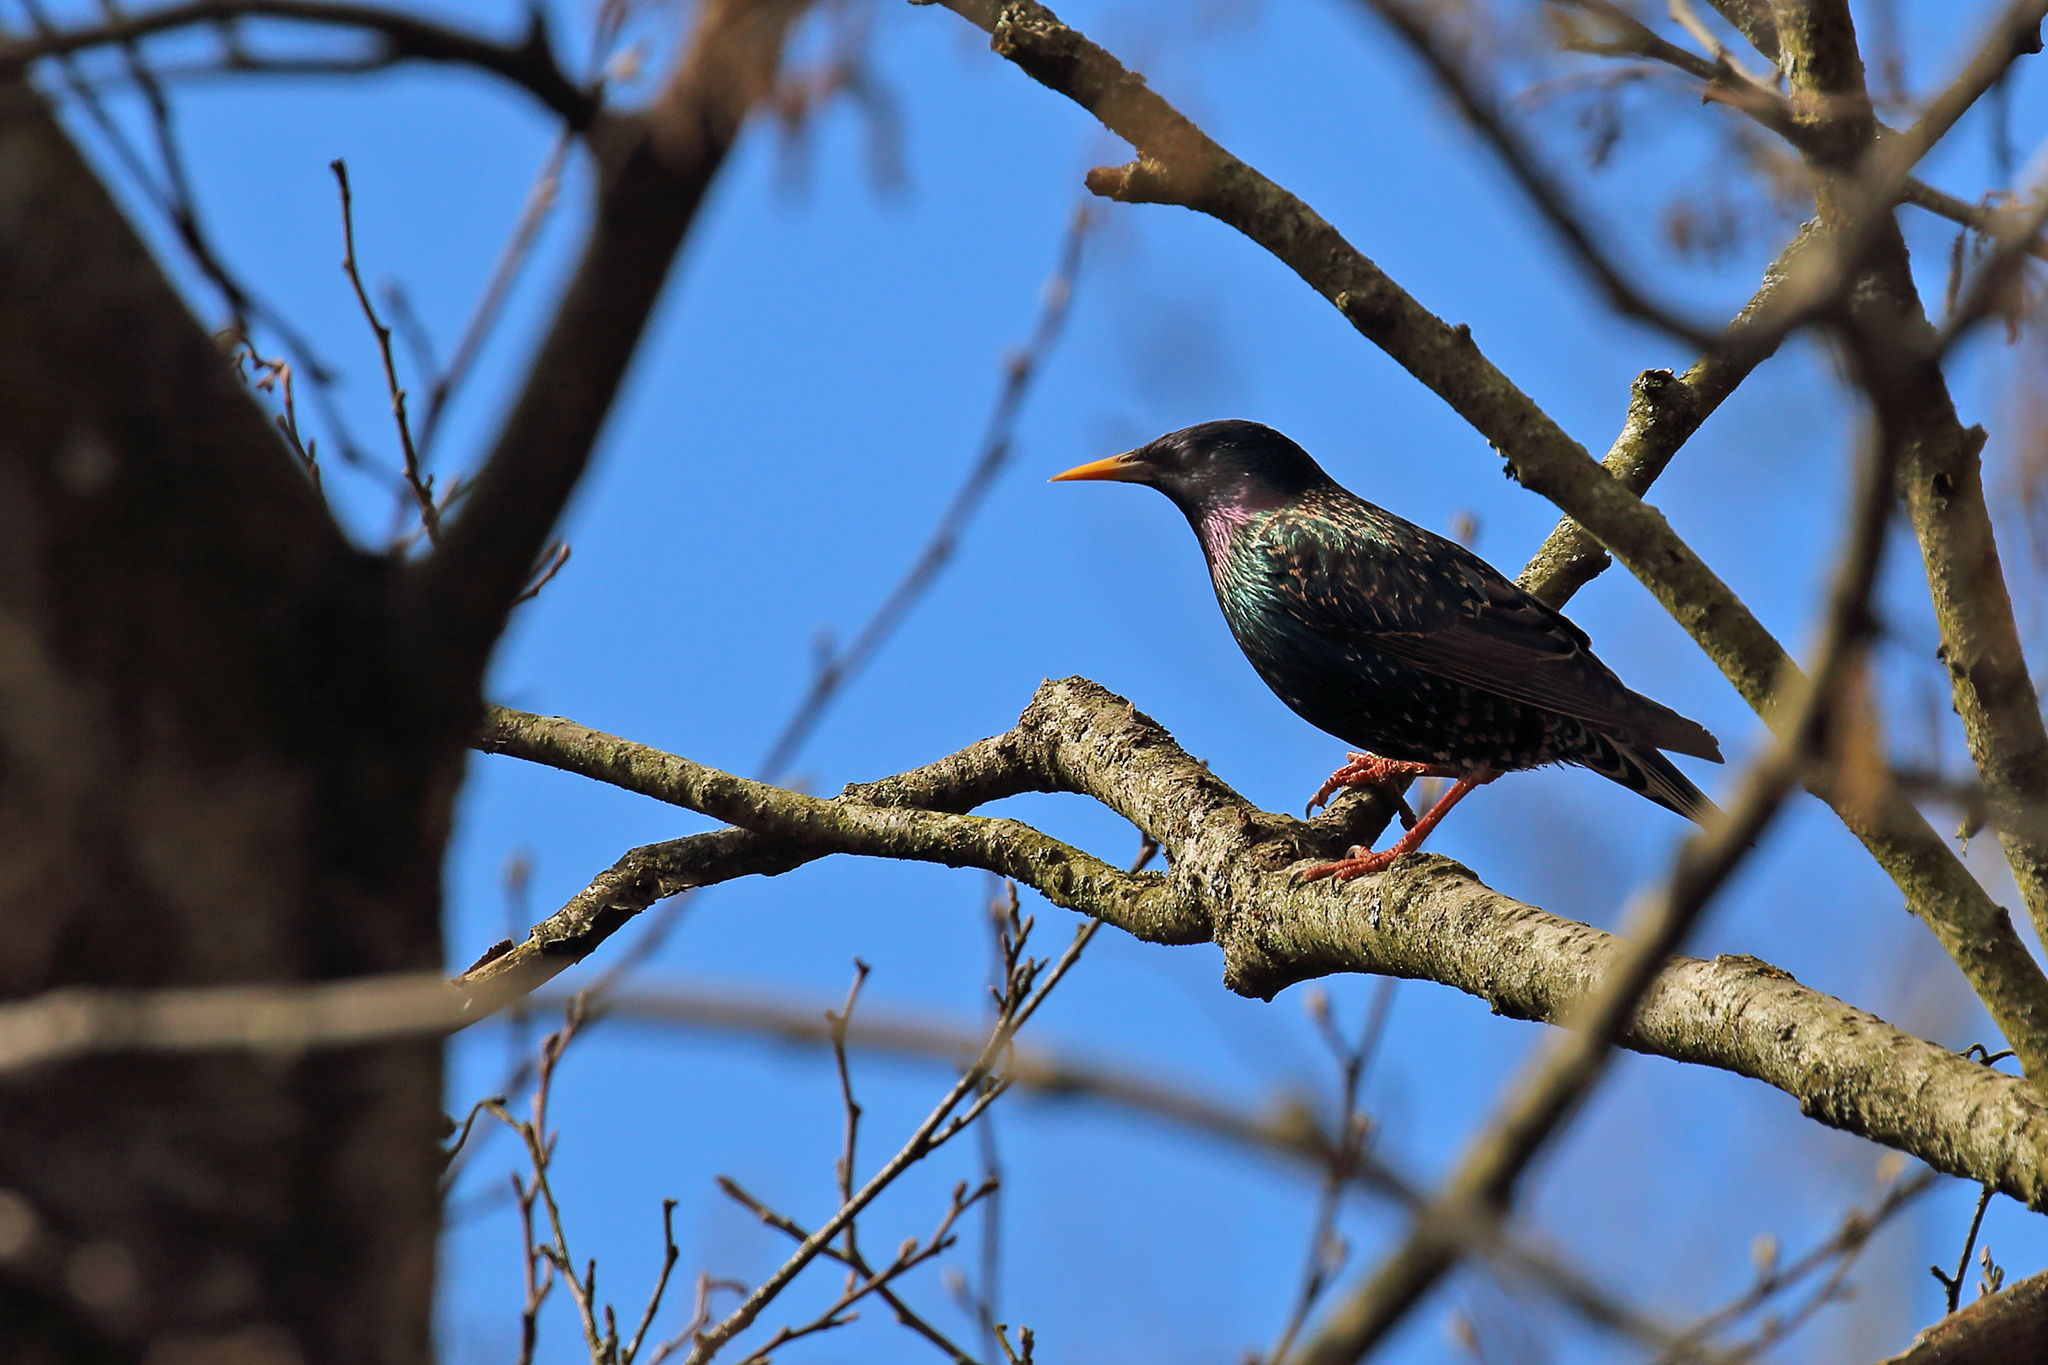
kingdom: Animalia
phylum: Chordata
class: Aves
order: Passeriformes
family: Sturnidae
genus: Sturnus
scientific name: Sturnus vulgaris
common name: Common starling
